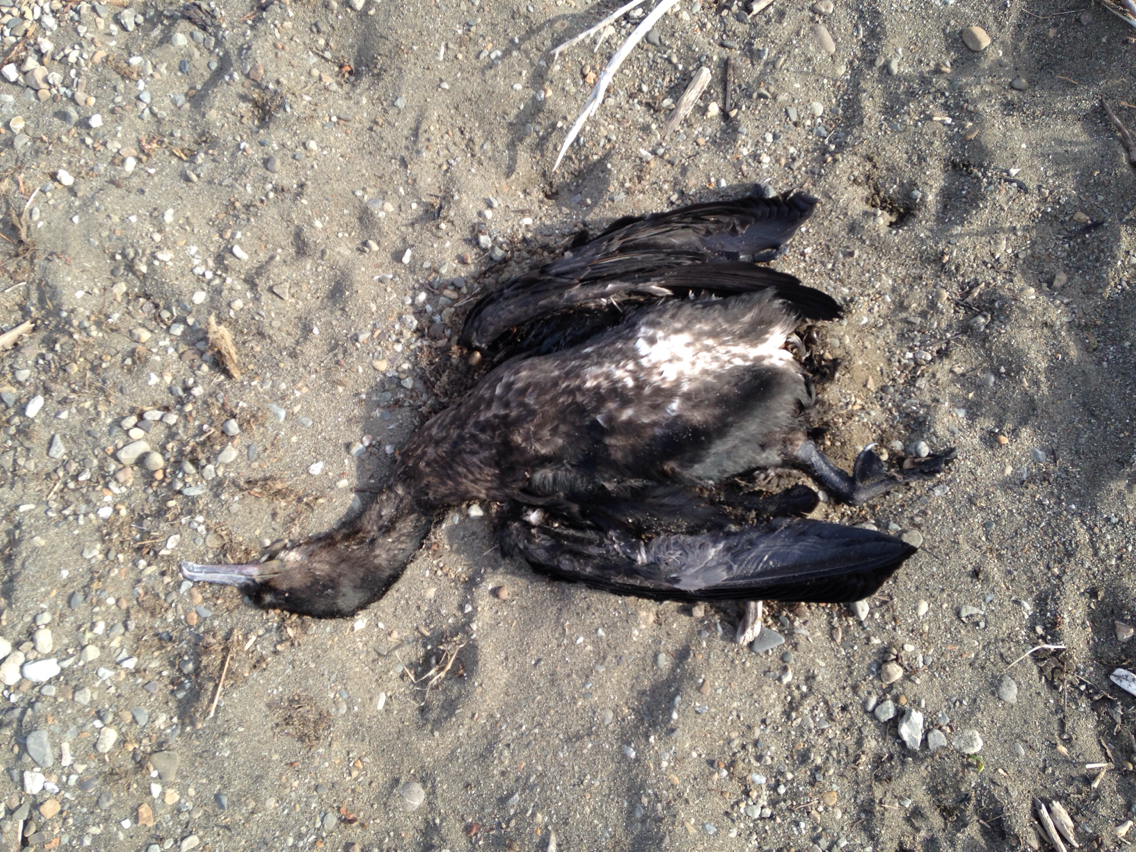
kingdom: Animalia
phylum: Chordata
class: Aves
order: Suliformes
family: Phalacrocoracidae
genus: Phalacrocorax
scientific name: Phalacrocorax sulcirostris
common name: Little black cormorant
